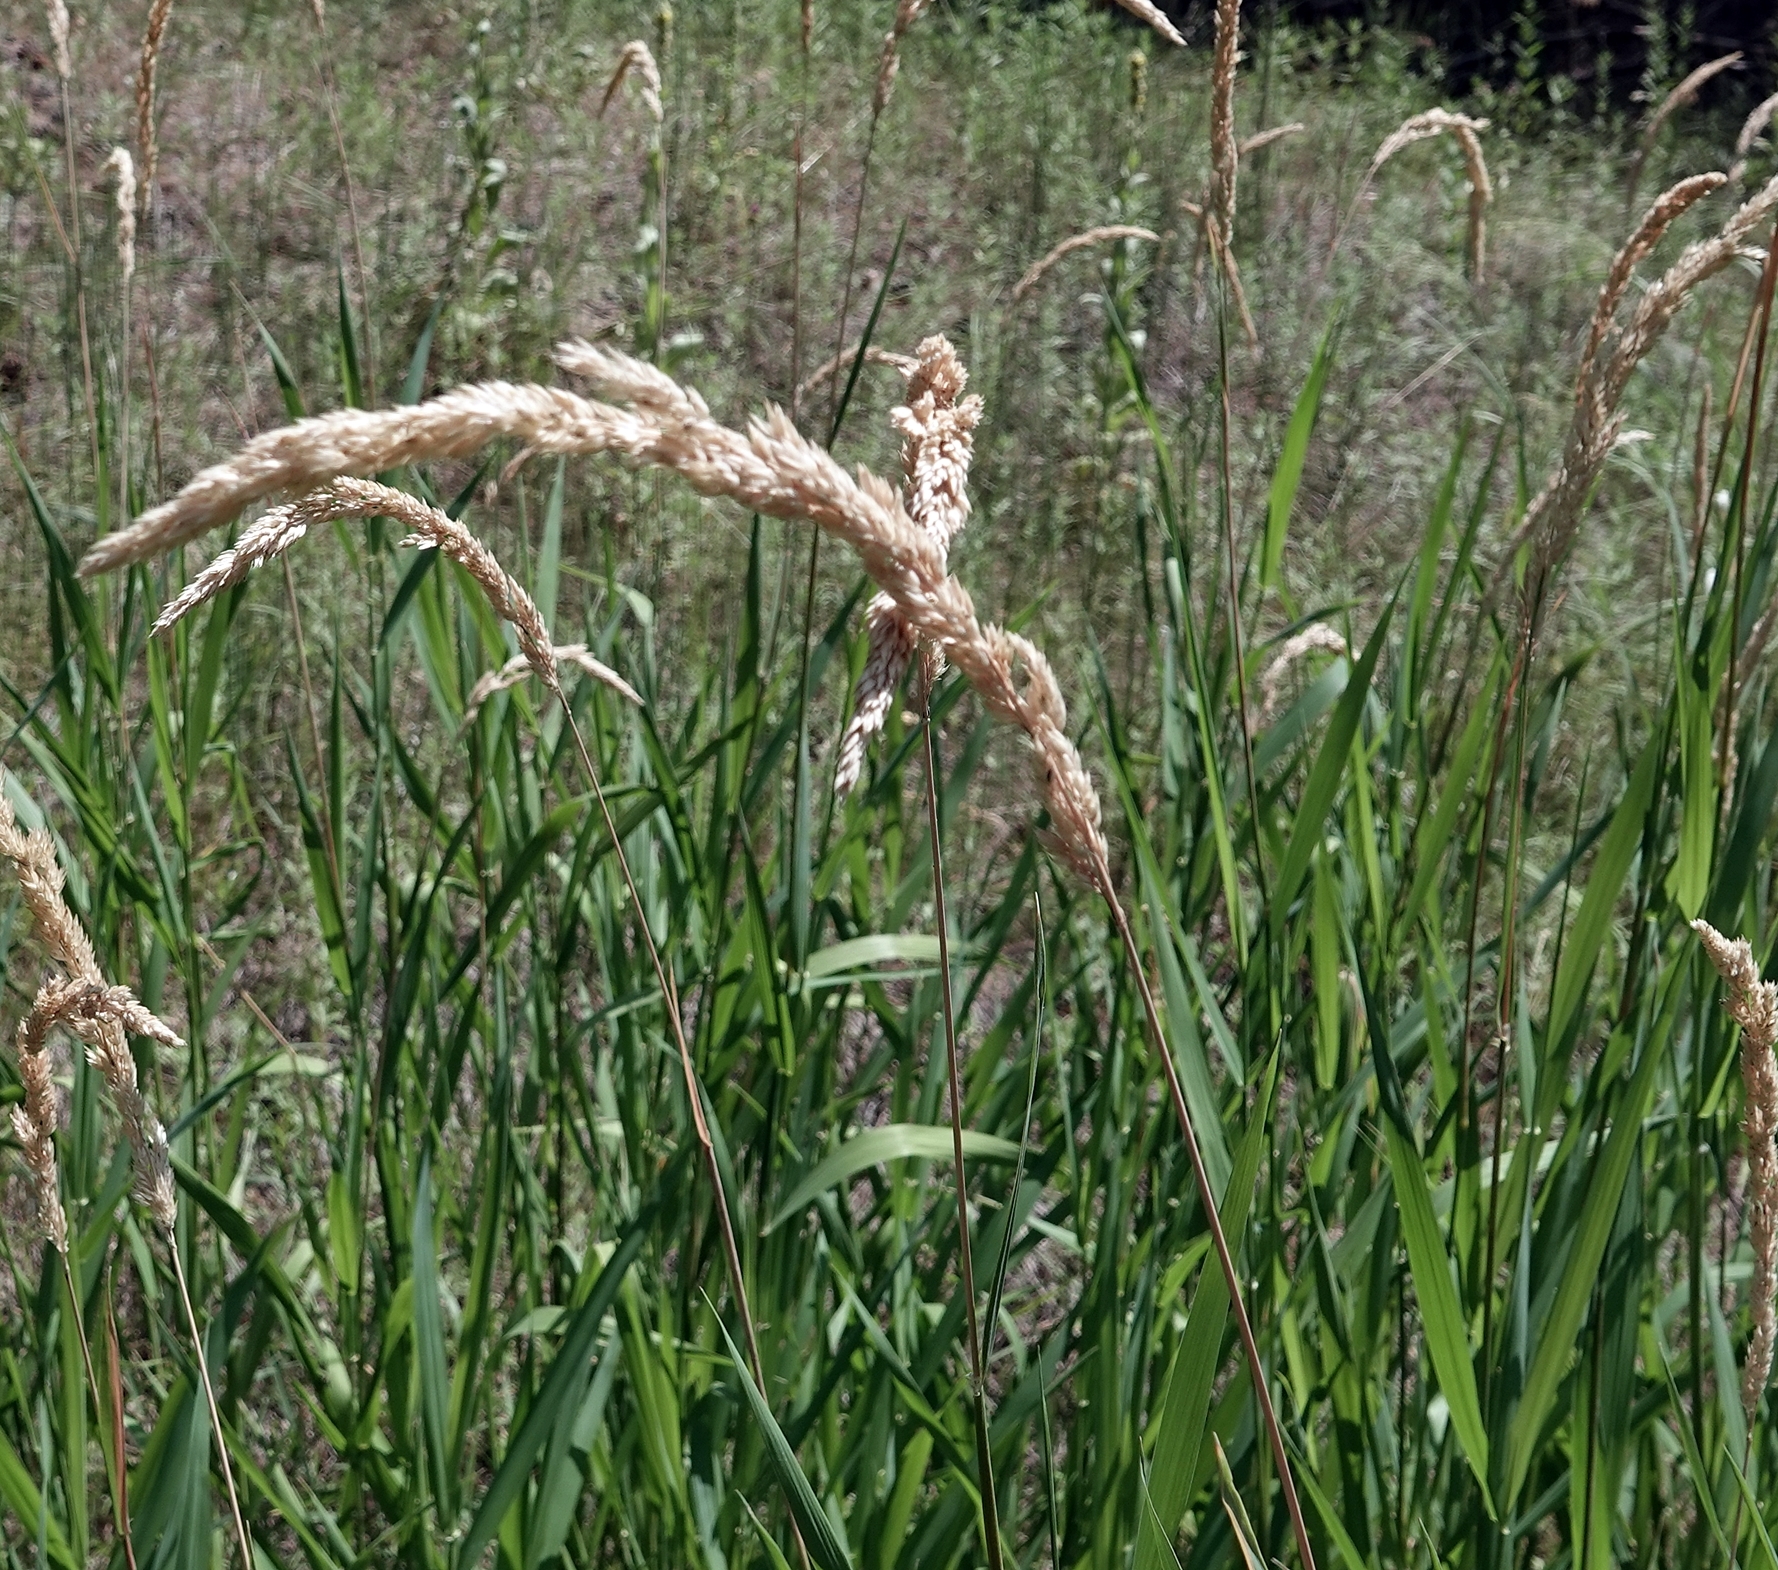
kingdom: Plantae
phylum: Tracheophyta
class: Liliopsida
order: Poales
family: Poaceae
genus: Phalaris
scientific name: Phalaris arundinacea
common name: Reed canary-grass
